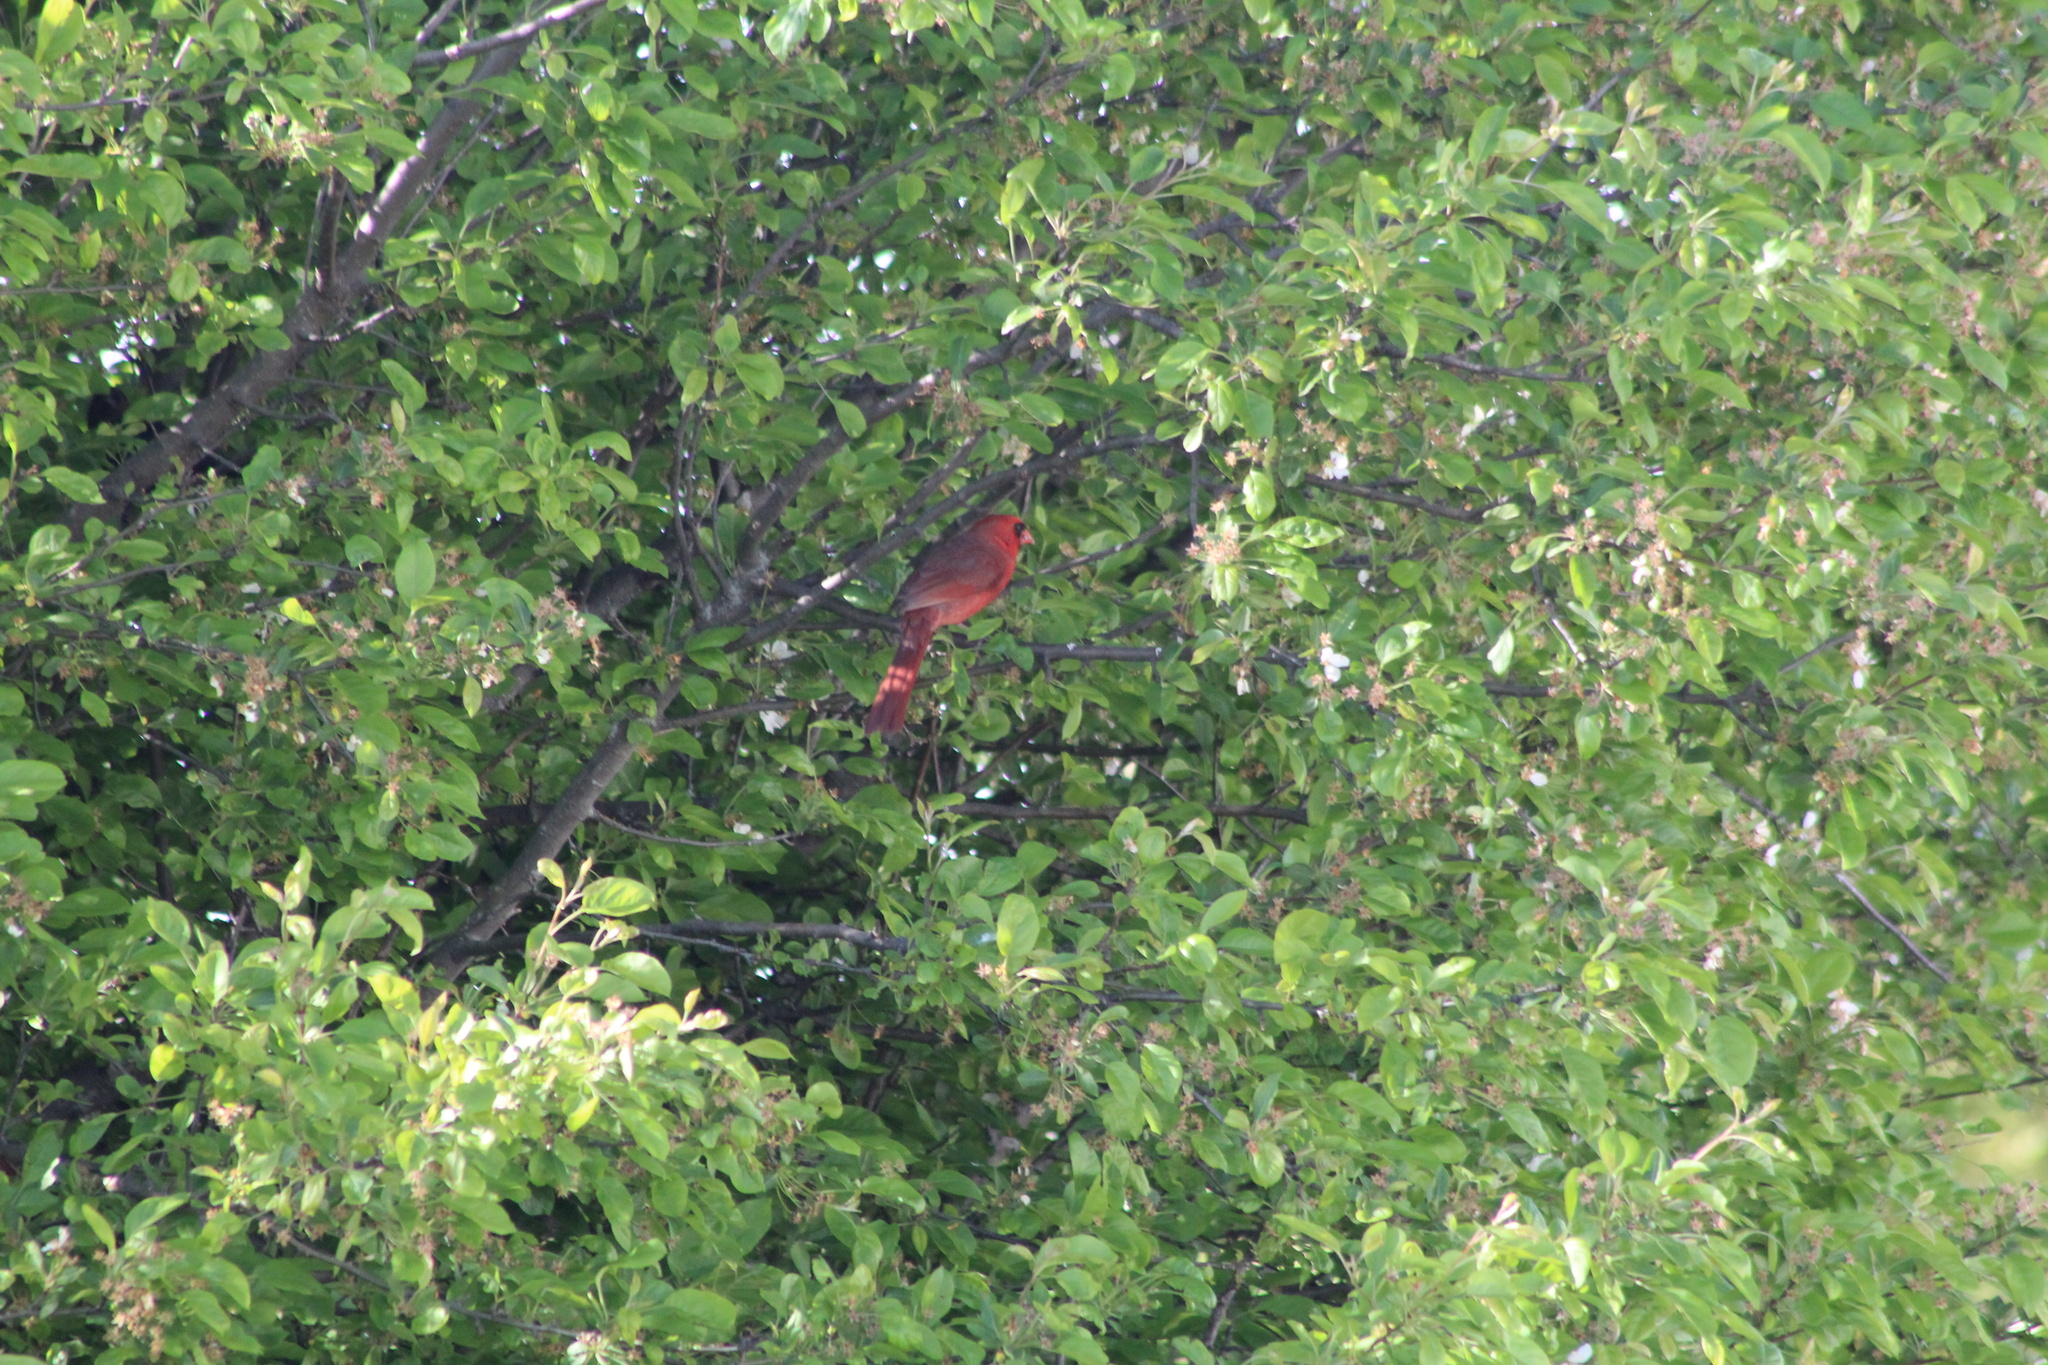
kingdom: Animalia
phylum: Chordata
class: Aves
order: Passeriformes
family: Cardinalidae
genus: Cardinalis
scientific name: Cardinalis cardinalis
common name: Northern cardinal
